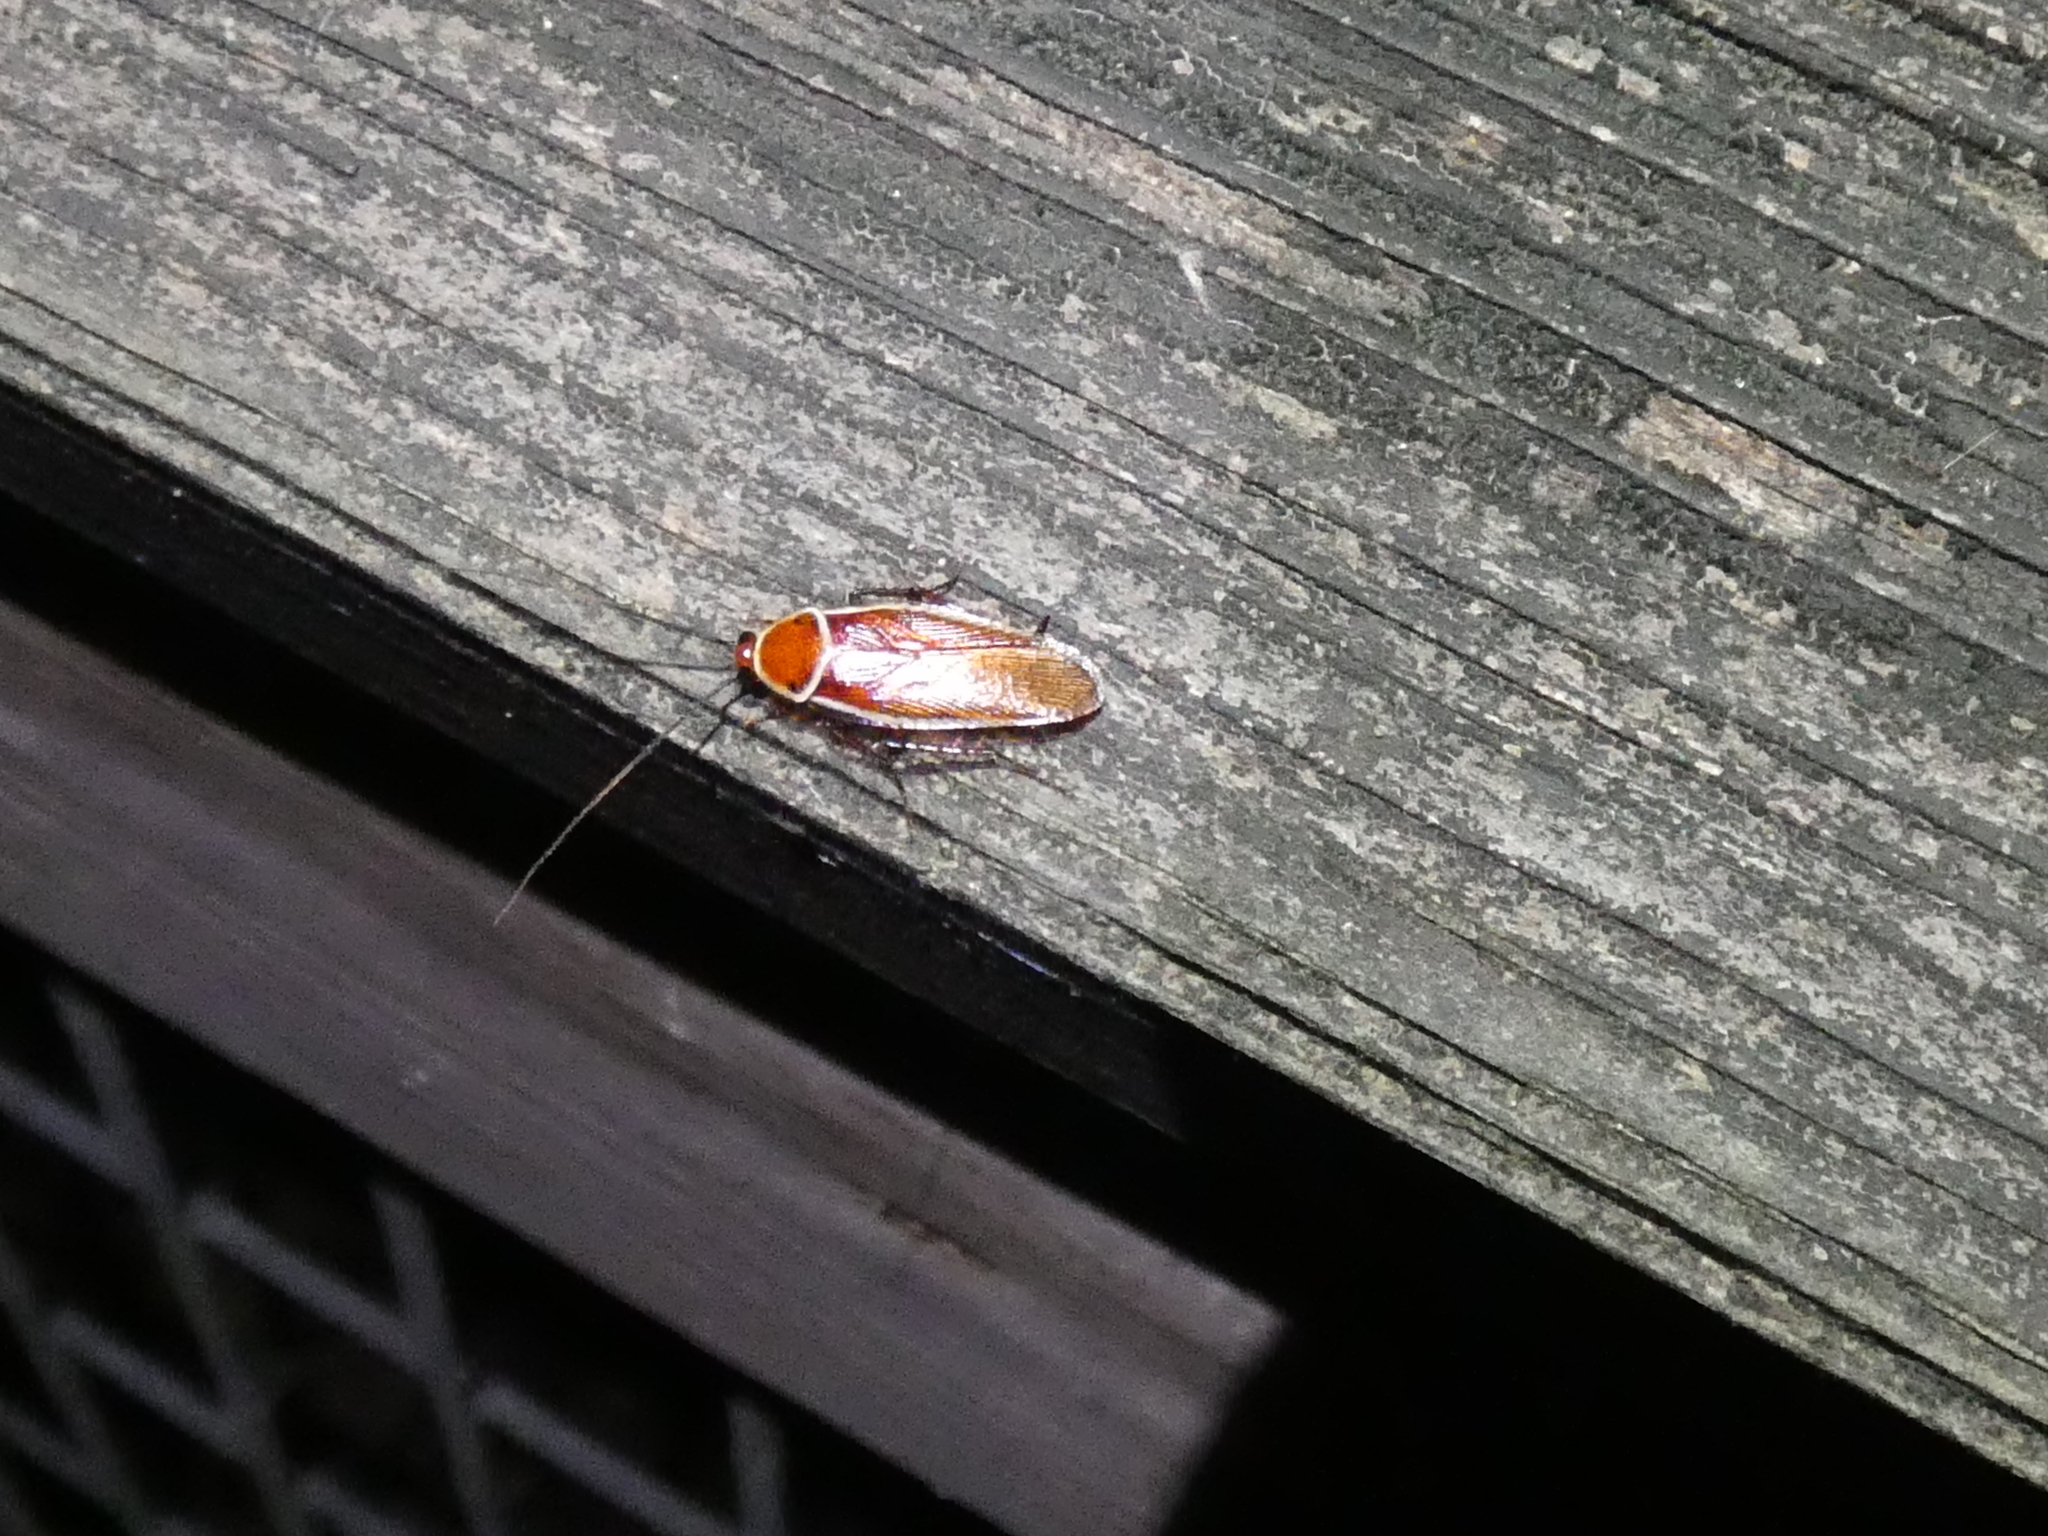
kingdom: Animalia
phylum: Arthropoda
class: Insecta
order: Blattodea
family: Ectobiidae
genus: Pseudomops
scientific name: Pseudomops septentrionalis
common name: Pale-bordered field cockroach
